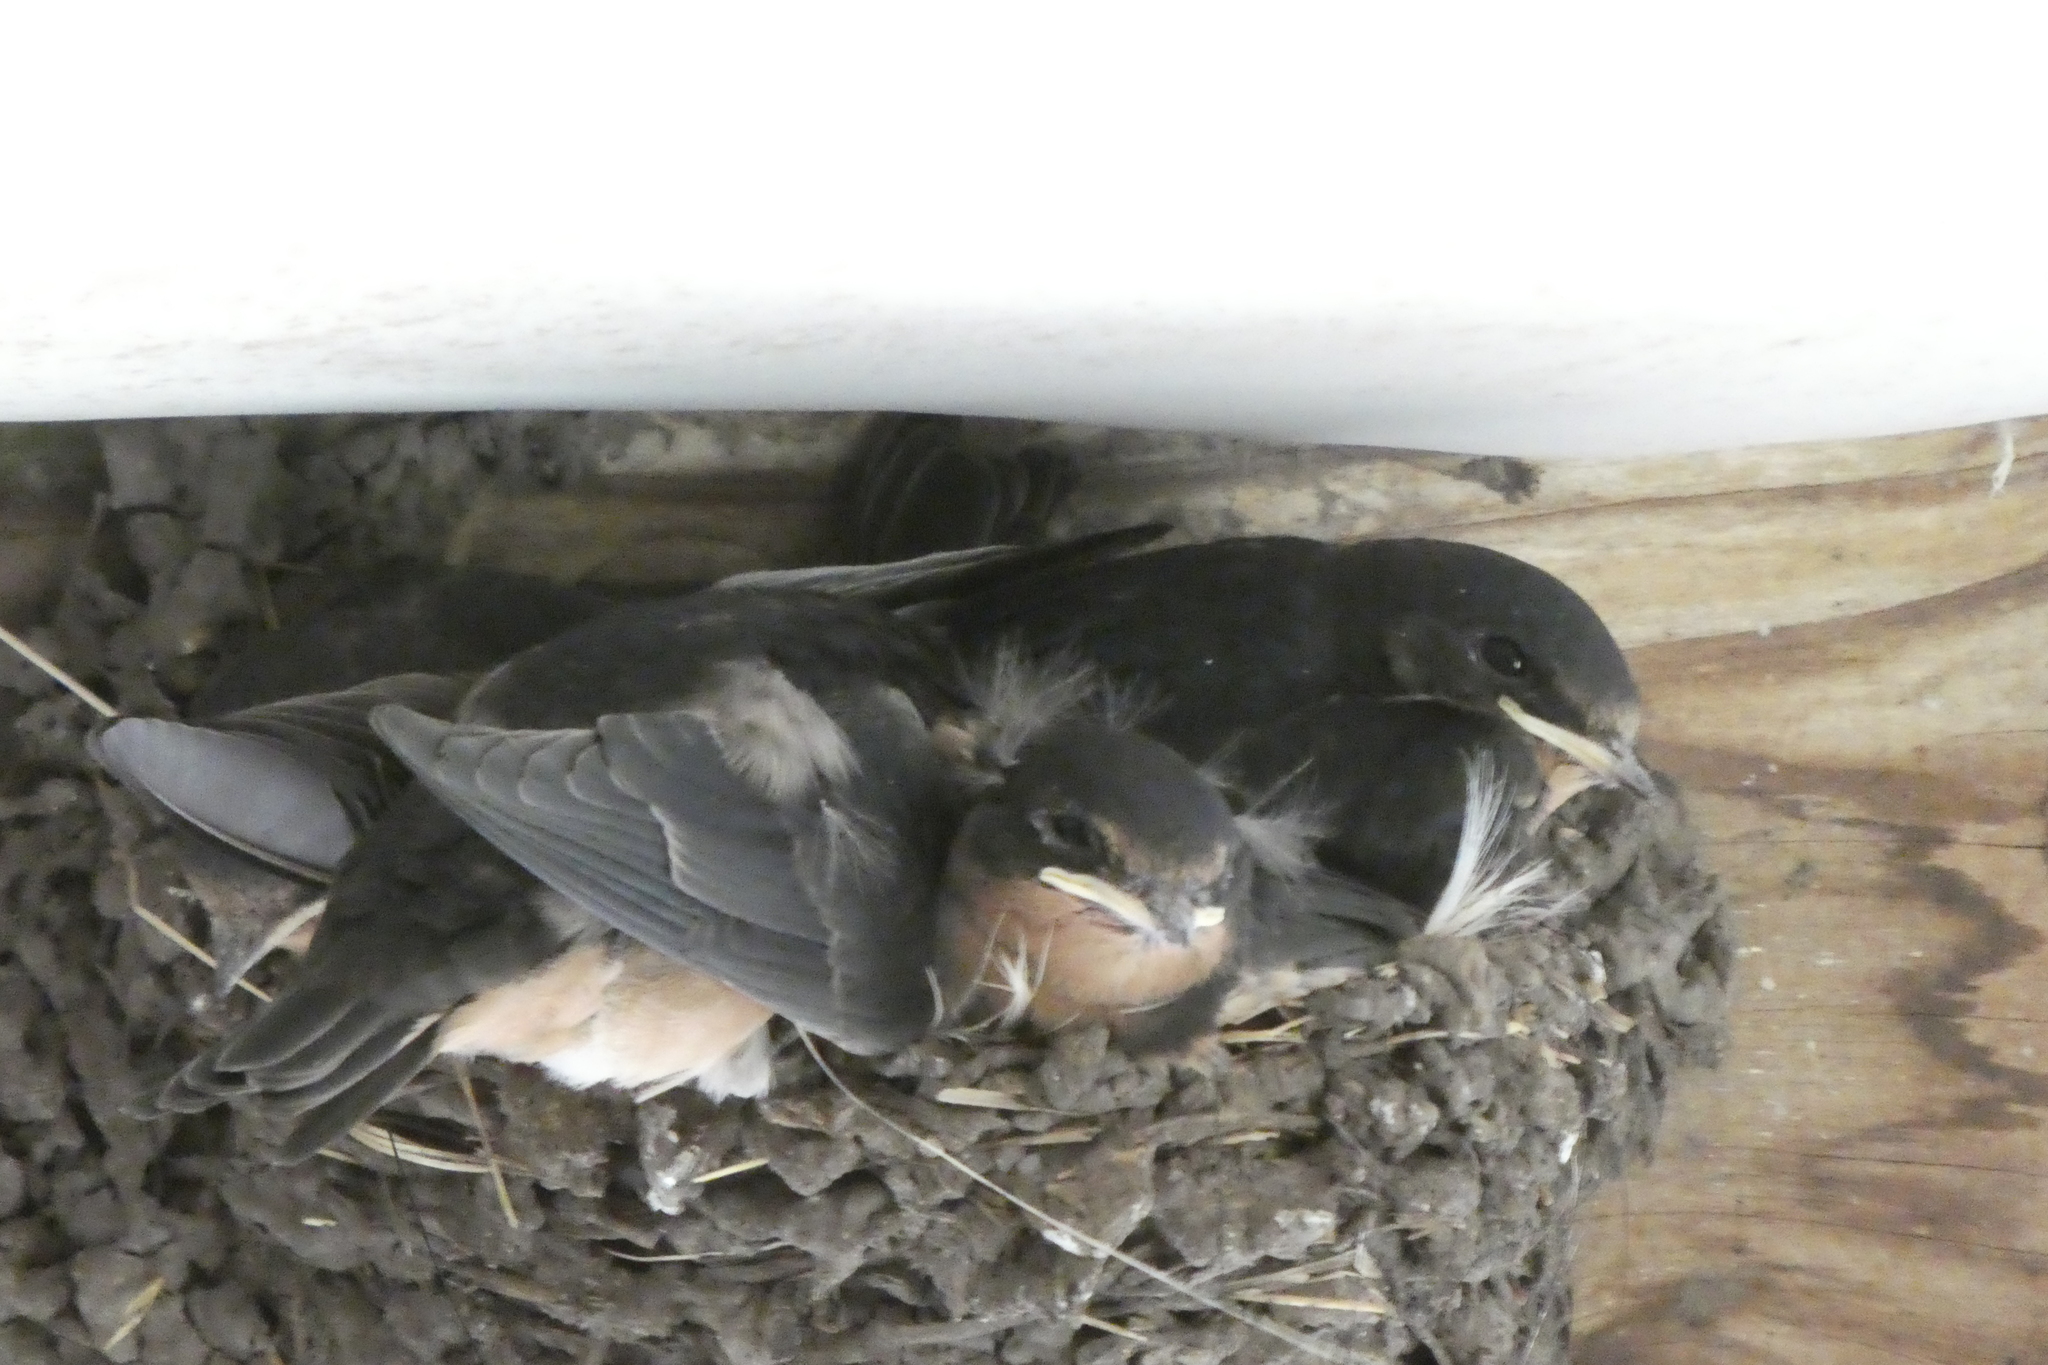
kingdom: Animalia
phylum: Chordata
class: Aves
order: Passeriformes
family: Hirundinidae
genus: Hirundo
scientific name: Hirundo rustica
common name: Barn swallow
